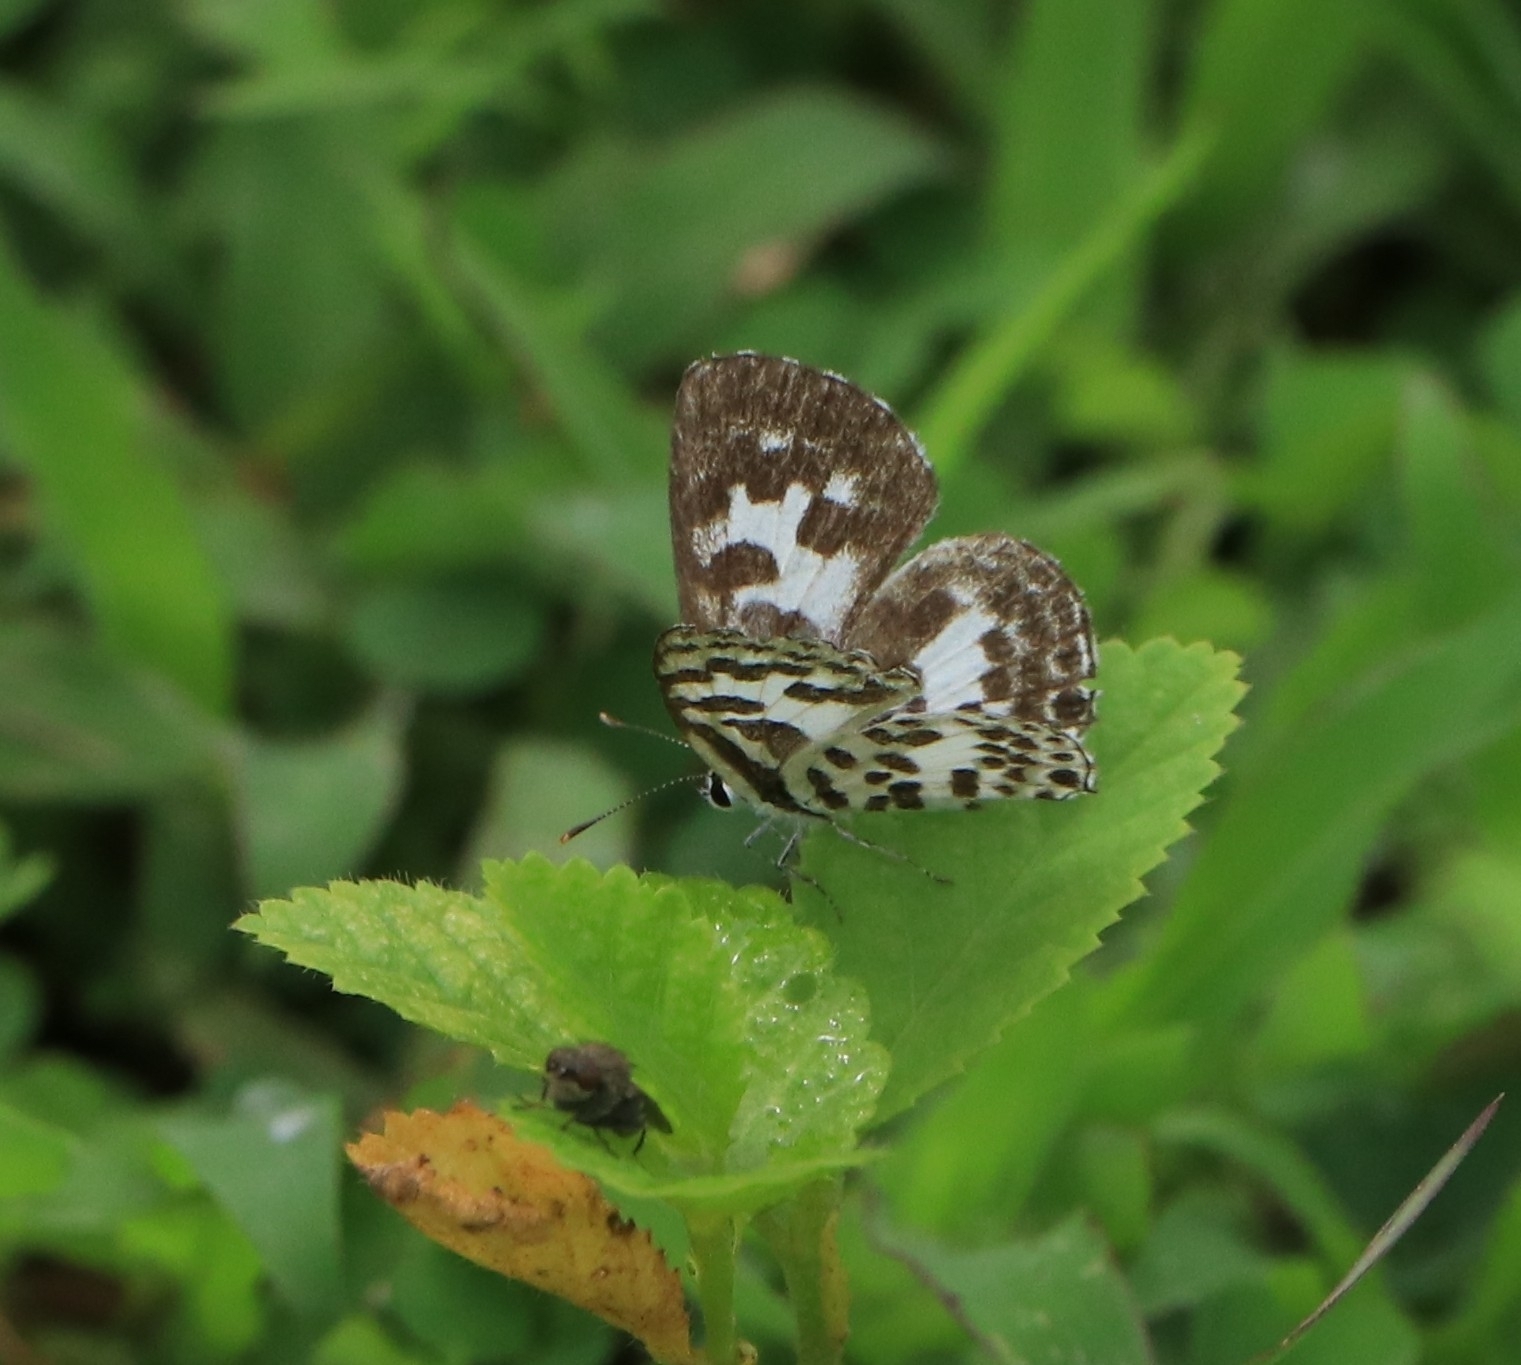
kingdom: Animalia
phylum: Arthropoda
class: Insecta
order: Lepidoptera
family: Lycaenidae
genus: Castalius
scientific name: Castalius rosimon
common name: Common pierrot
